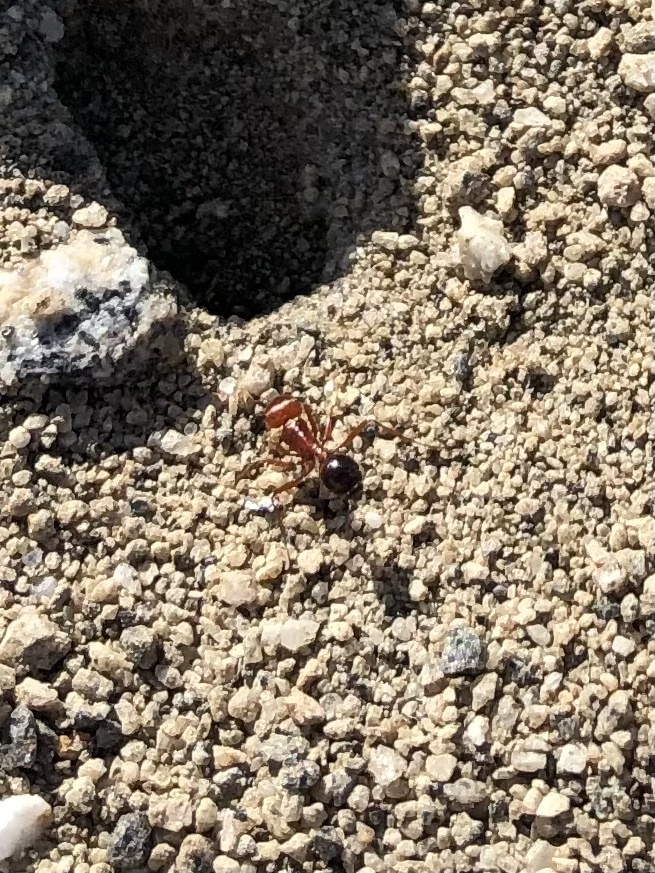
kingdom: Animalia
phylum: Arthropoda
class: Insecta
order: Hymenoptera
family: Formicidae
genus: Pogonomyrmex
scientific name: Pogonomyrmex californicus
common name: California harvester ant
